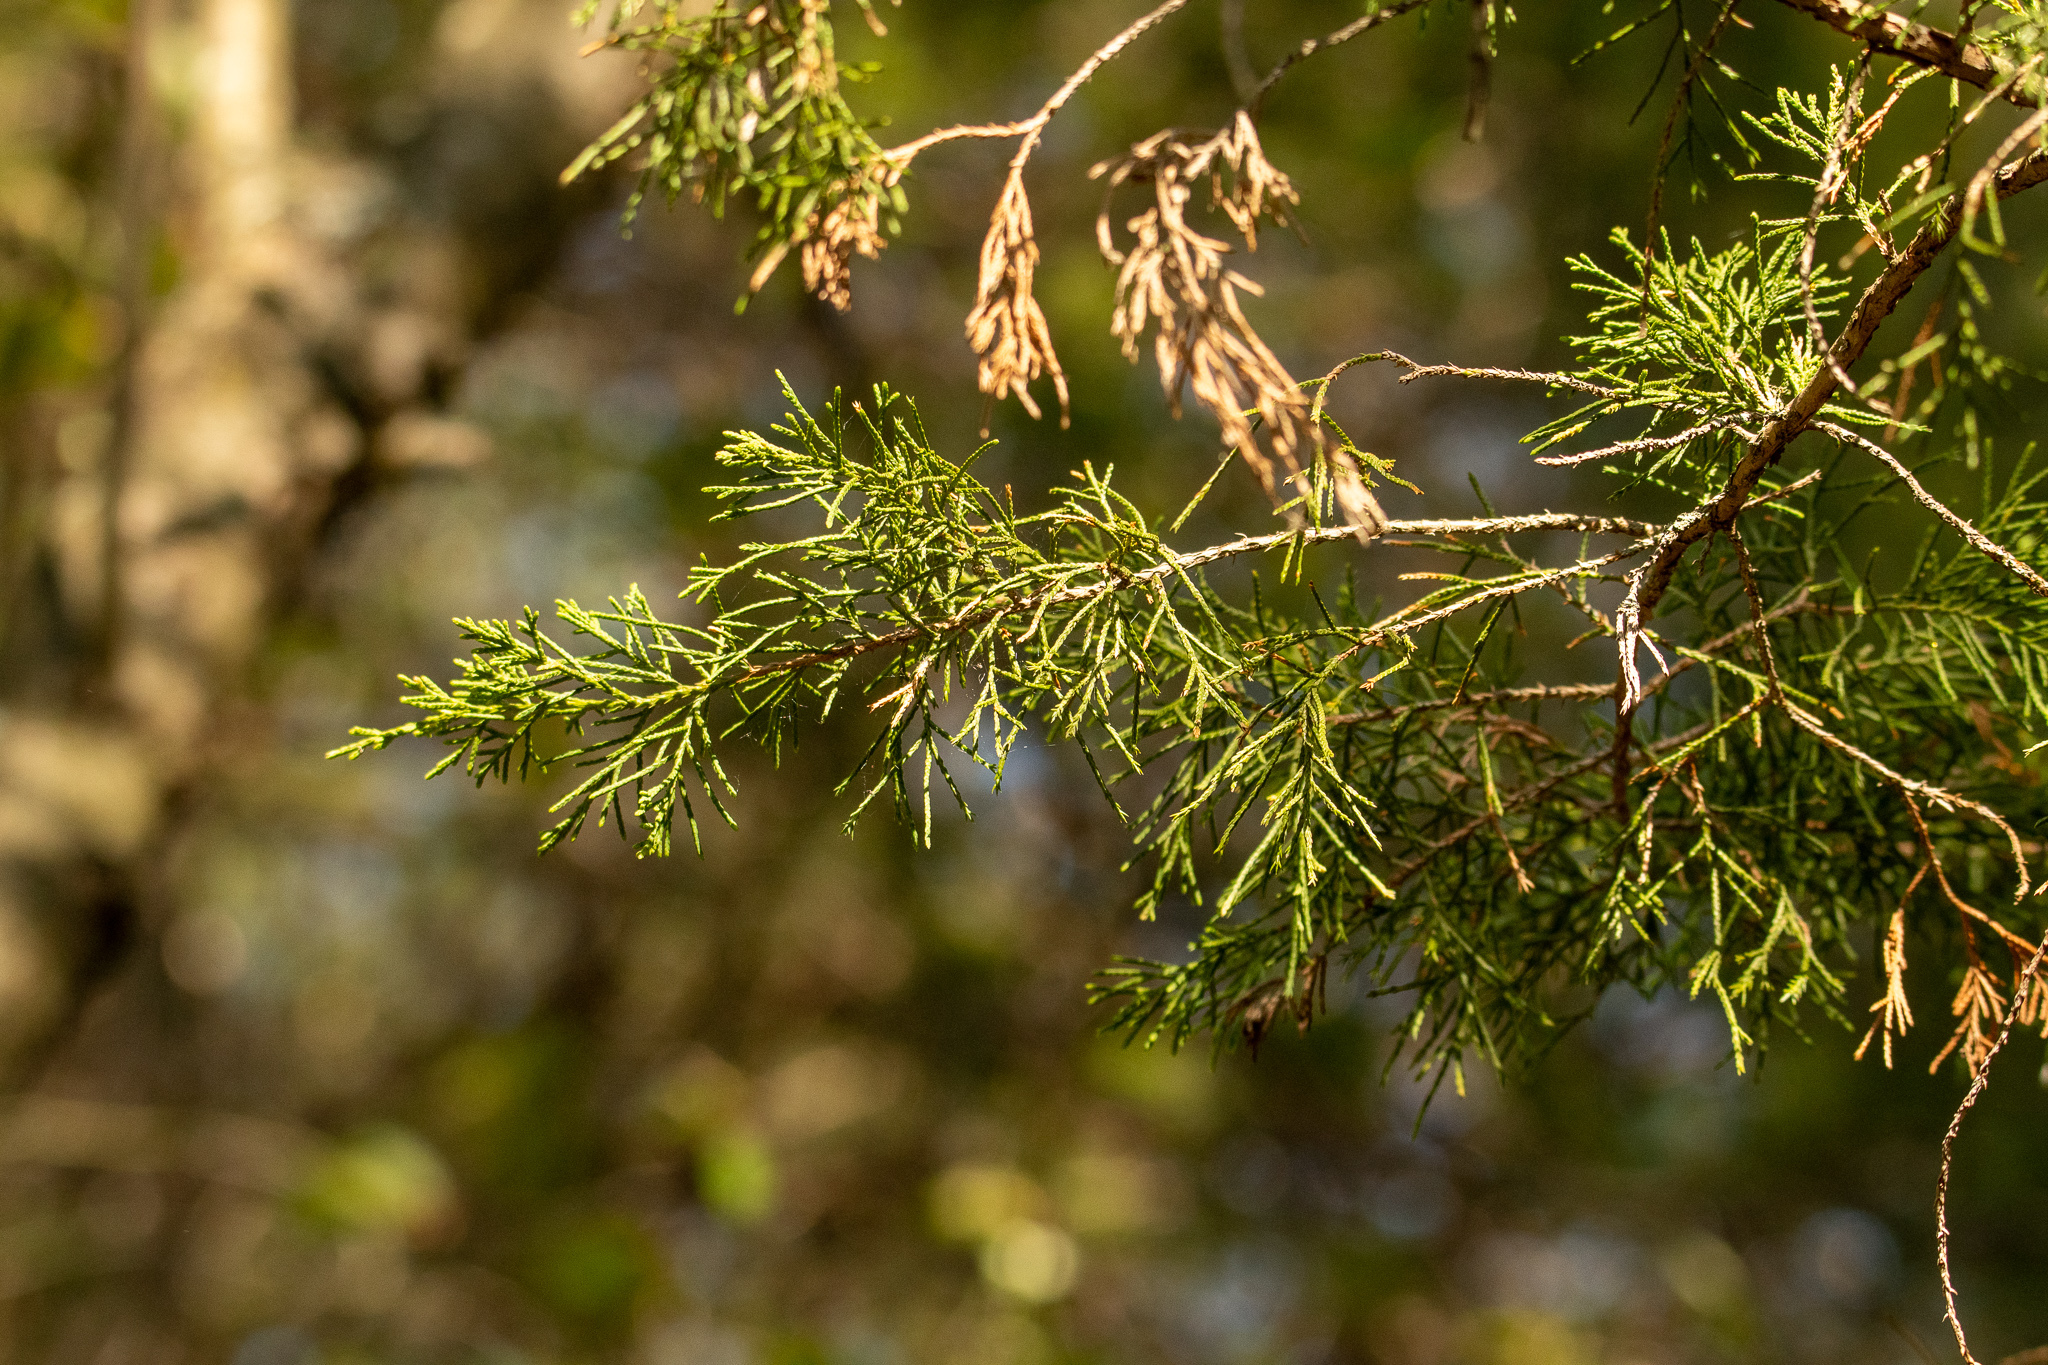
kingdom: Plantae
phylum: Tracheophyta
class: Pinopsida
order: Pinales
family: Cupressaceae
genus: Juniperus
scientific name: Juniperus virginiana
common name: Red juniper
